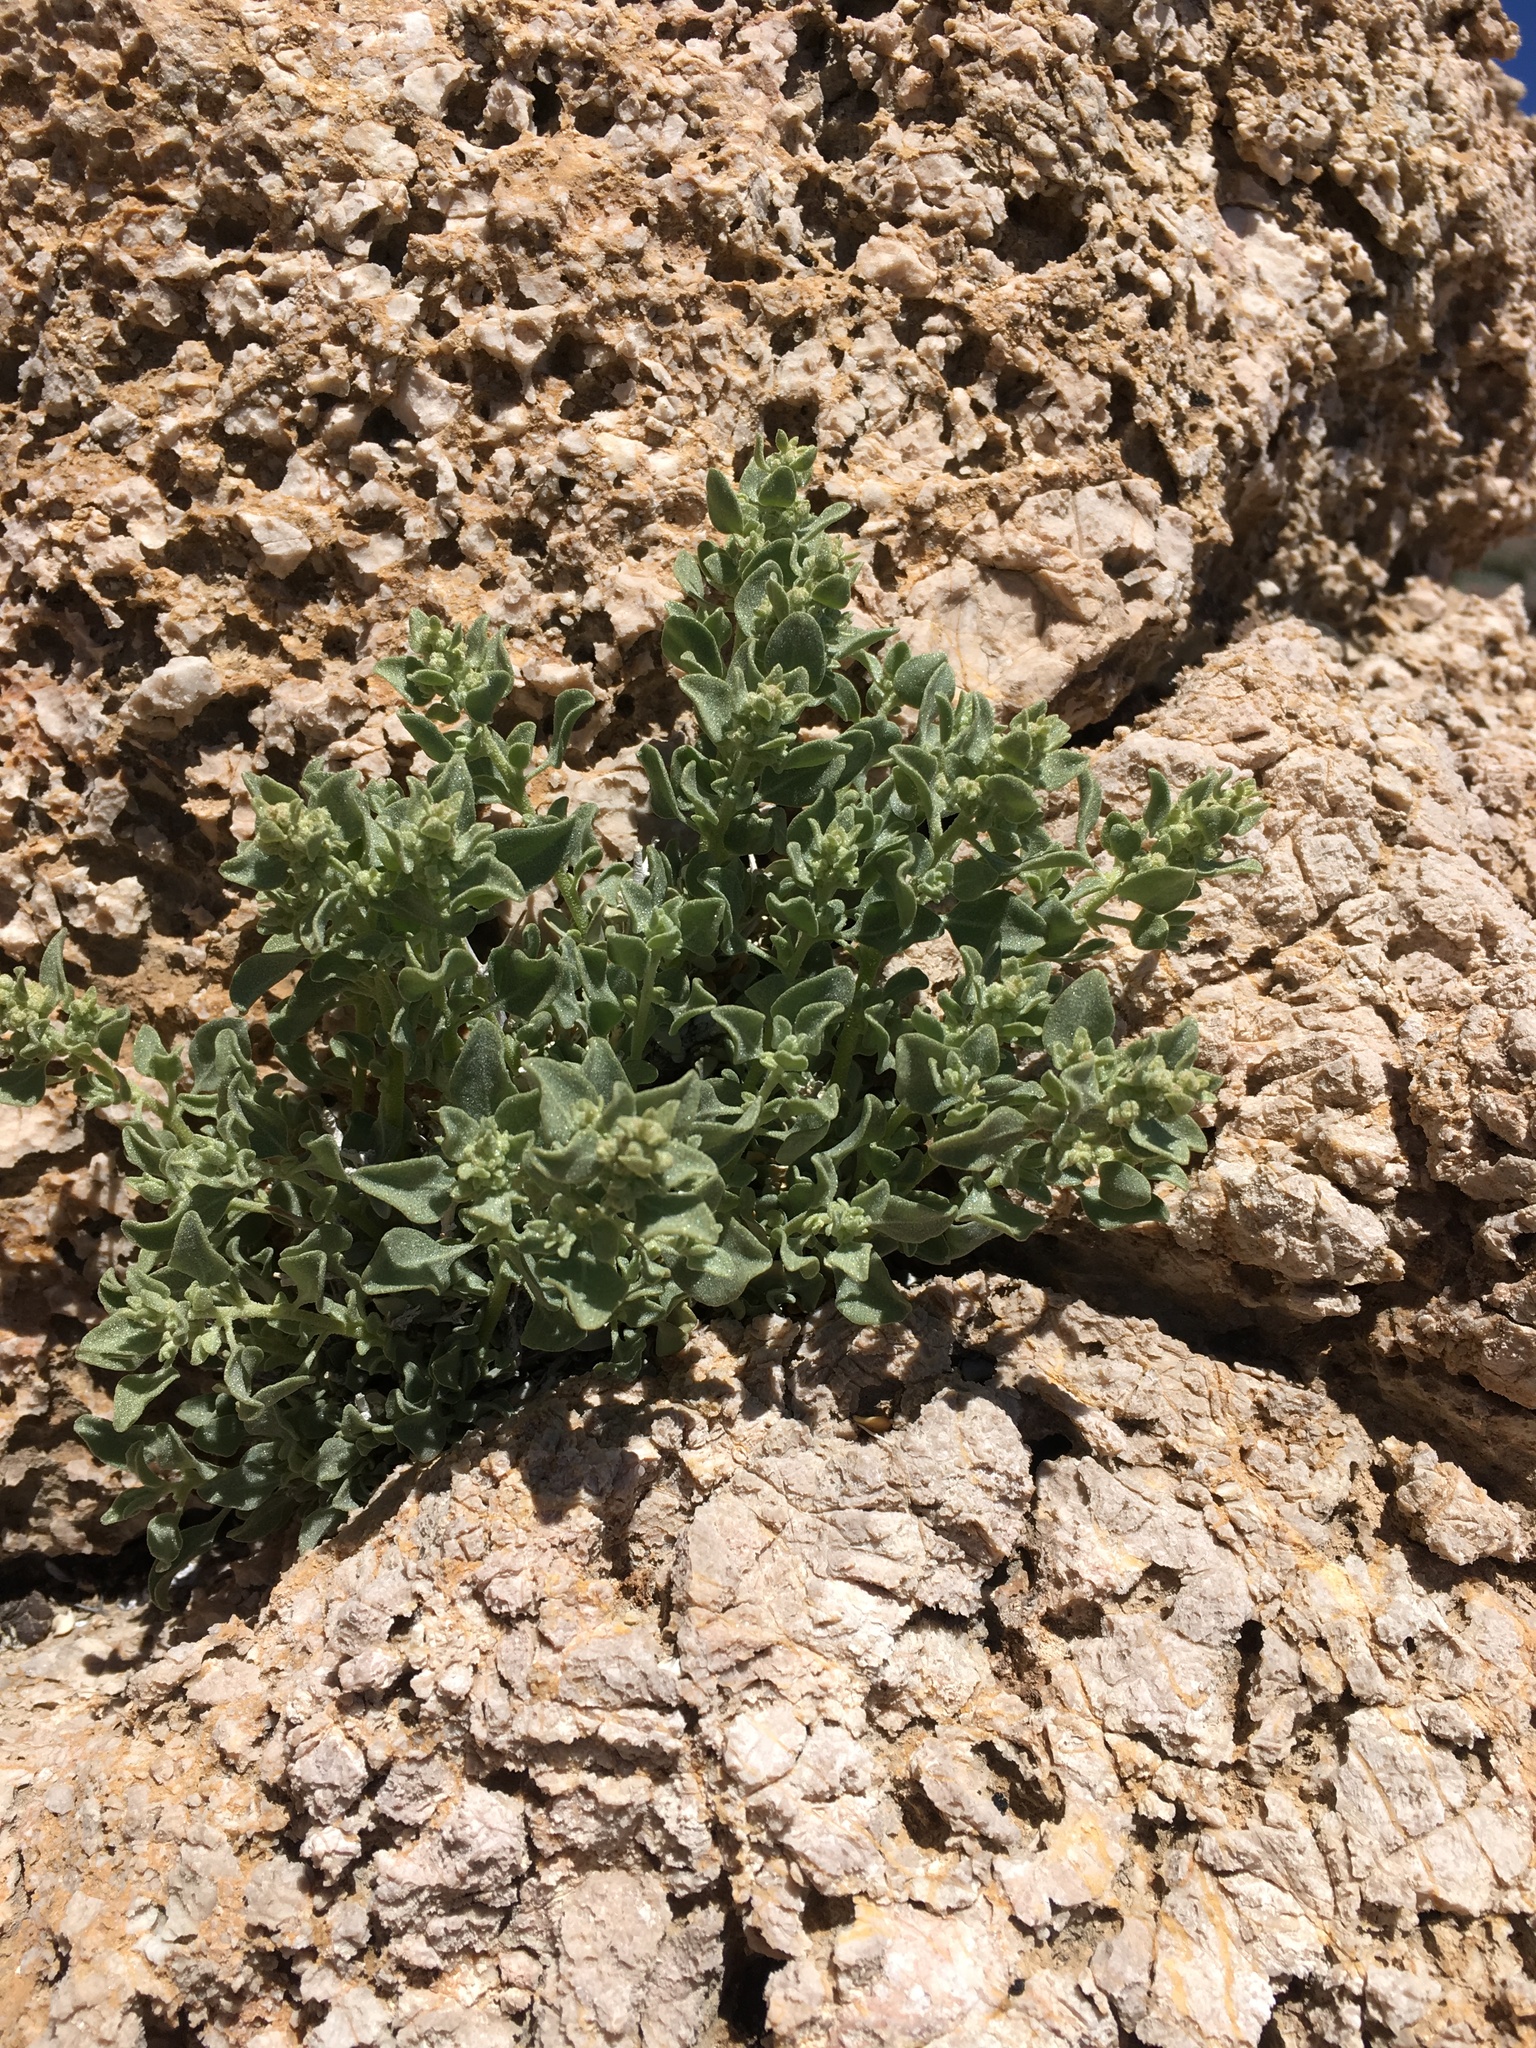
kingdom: Plantae
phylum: Tracheophyta
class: Magnoliopsida
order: Caryophyllales
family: Amaranthaceae
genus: Atriplex
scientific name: Atriplex confertifolia
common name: Shadscale
